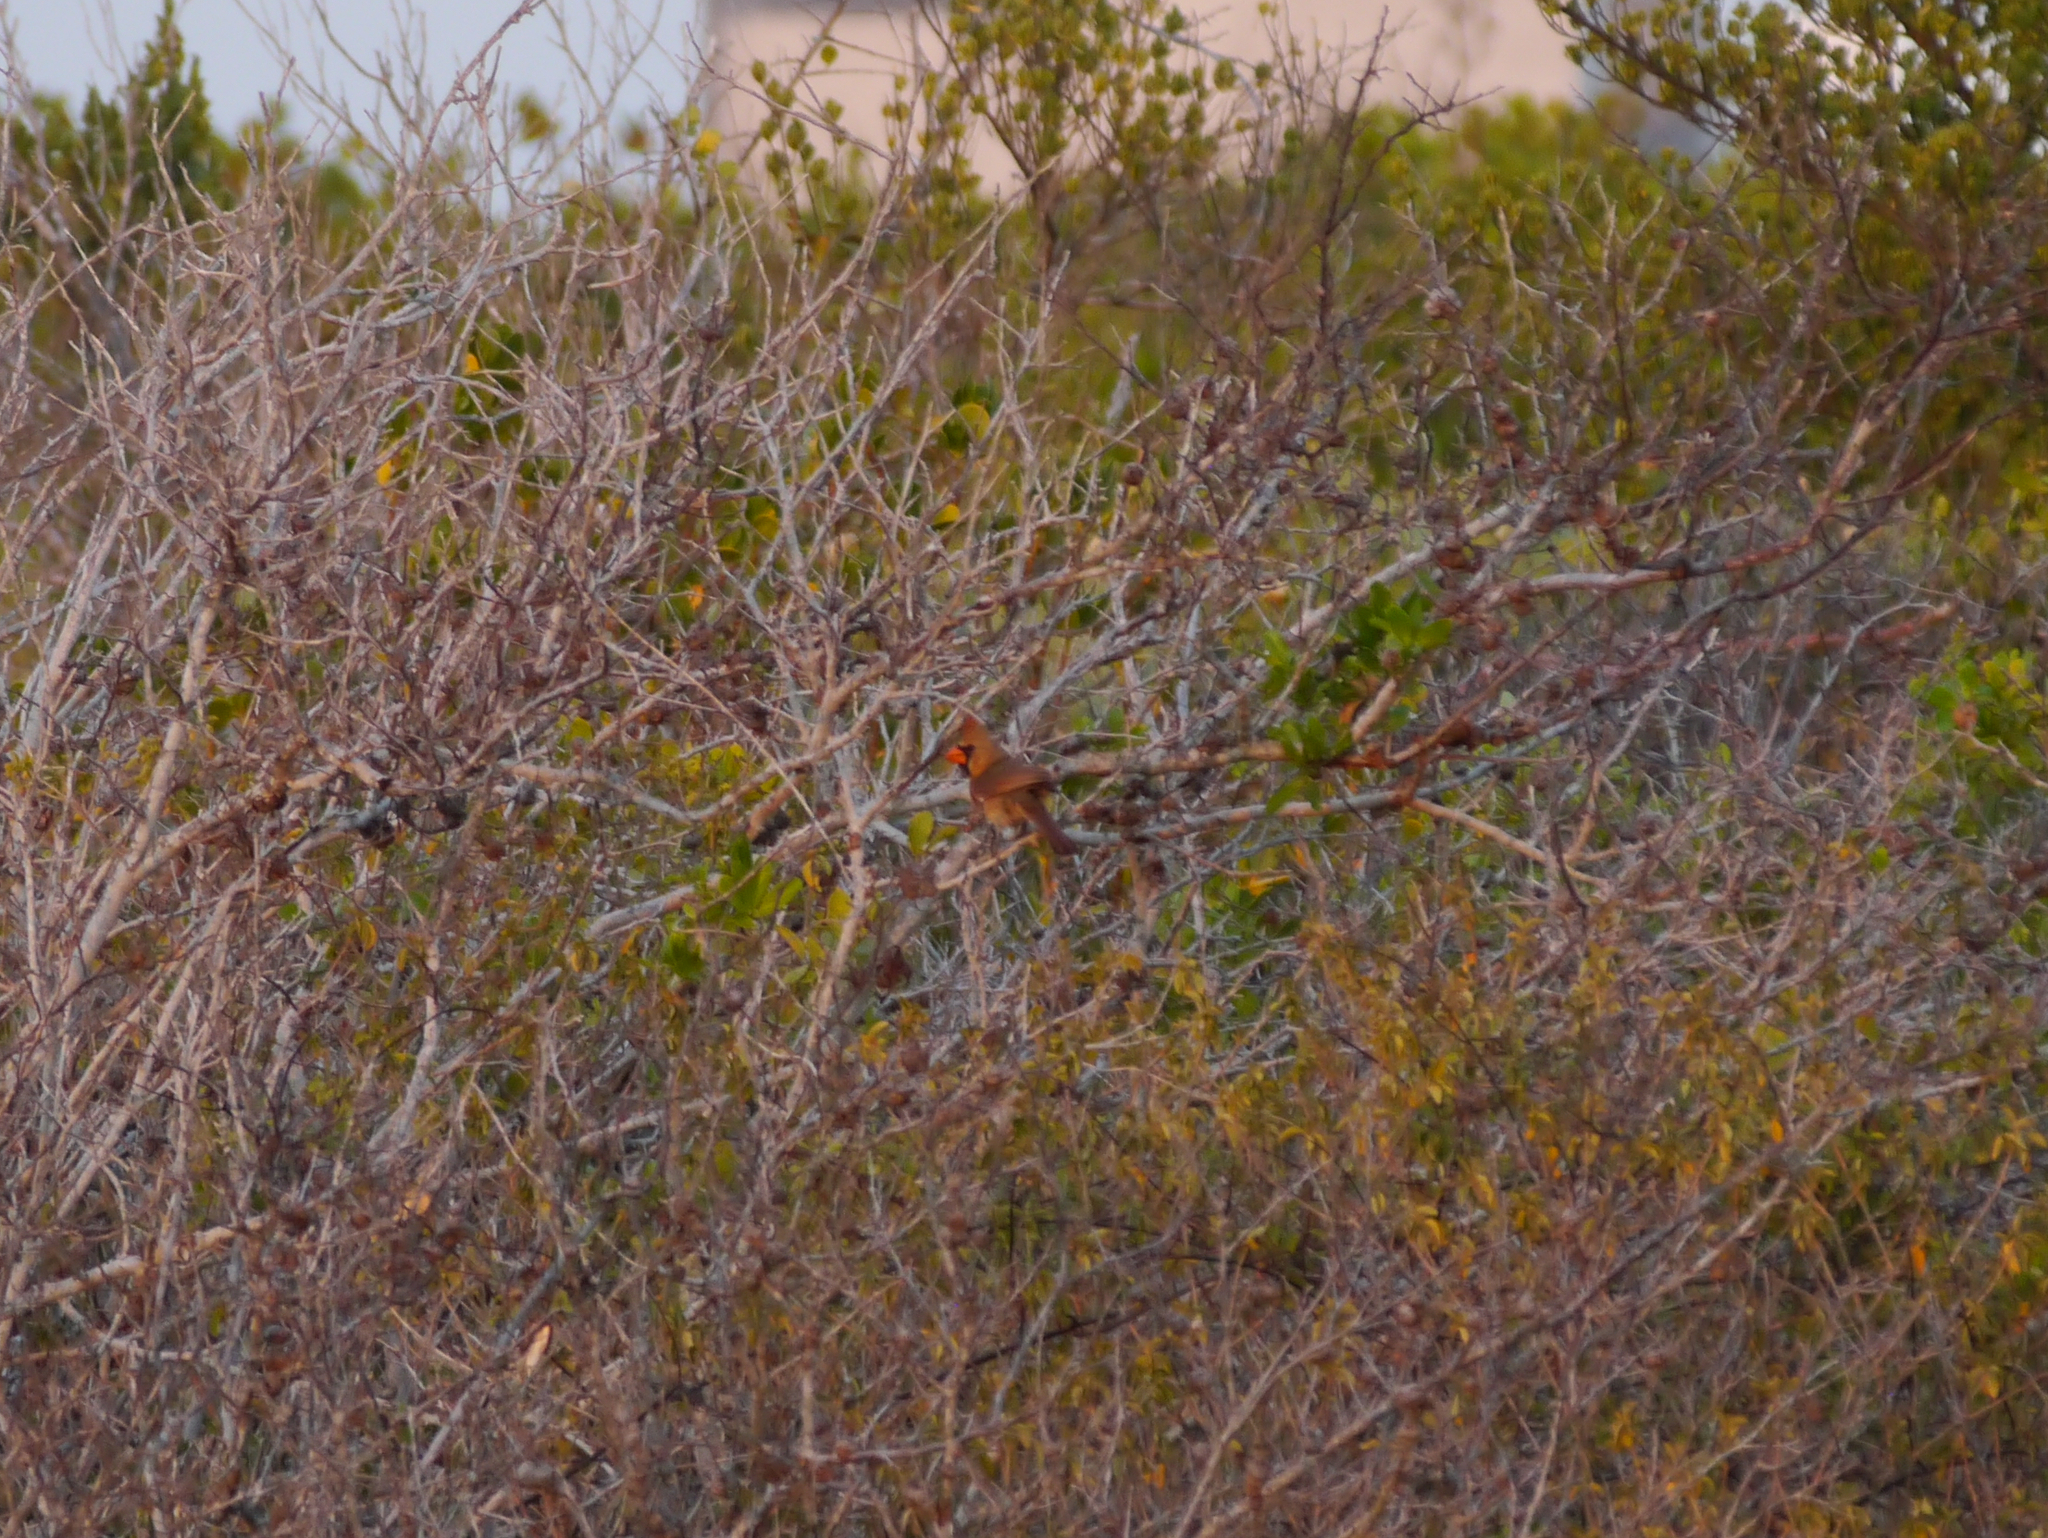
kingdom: Animalia
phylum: Chordata
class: Aves
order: Passeriformes
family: Cardinalidae
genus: Cardinalis
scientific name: Cardinalis cardinalis
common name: Northern cardinal
